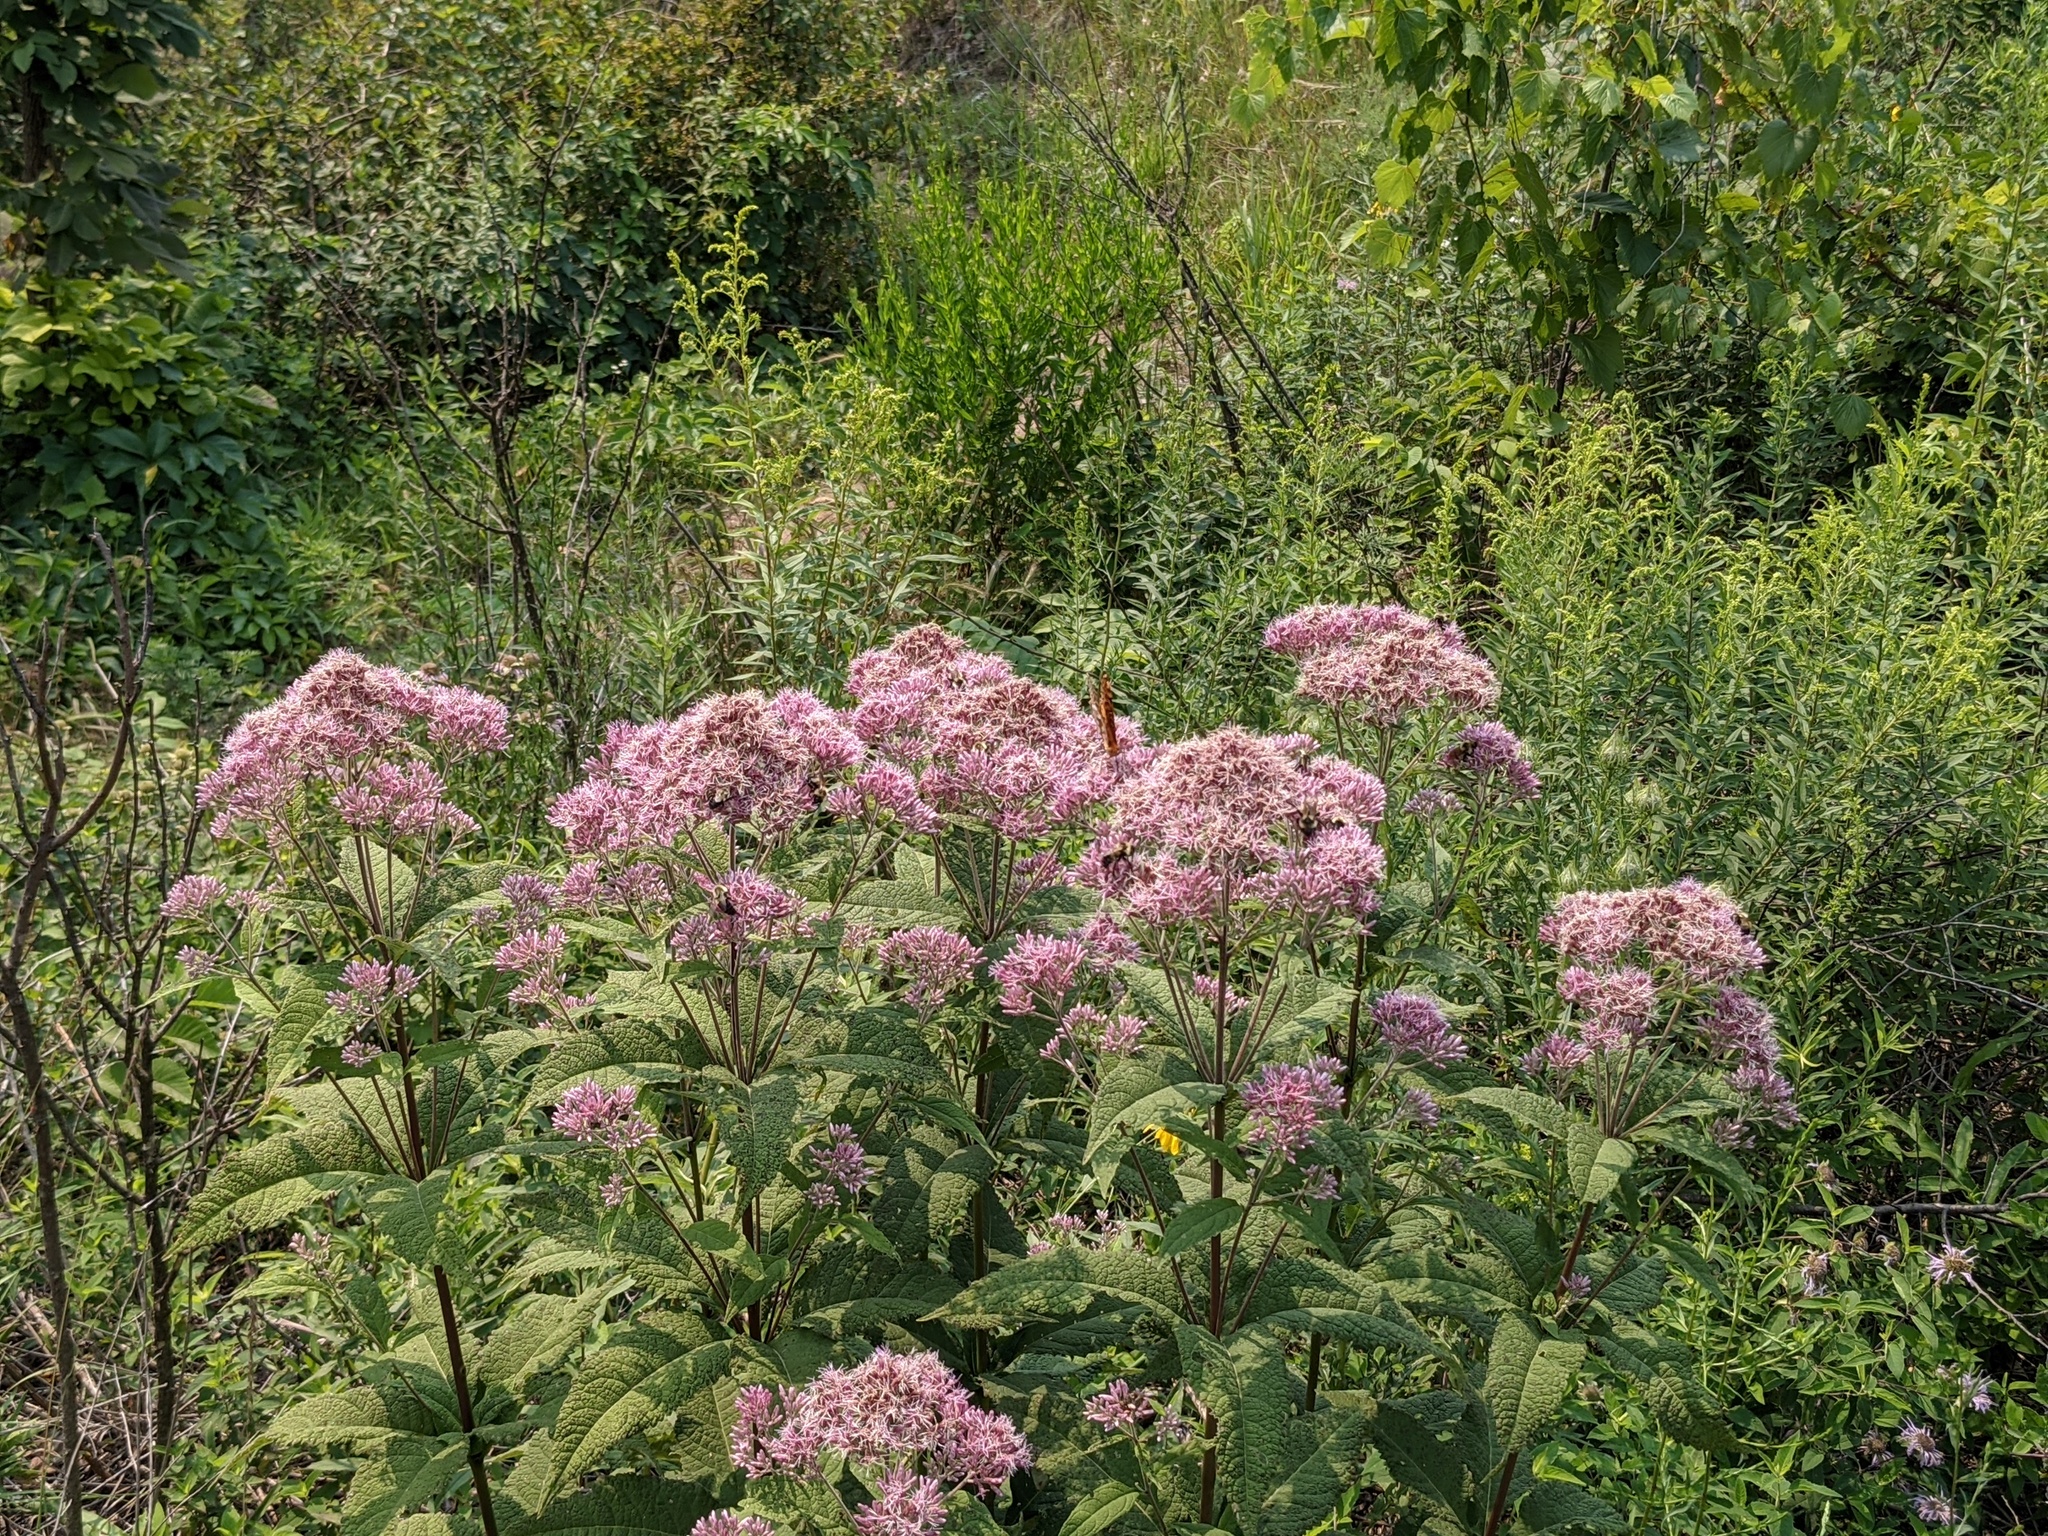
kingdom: Plantae
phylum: Tracheophyta
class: Magnoliopsida
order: Asterales
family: Asteraceae
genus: Eutrochium
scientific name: Eutrochium maculatum
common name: Spotted joe pye weed
